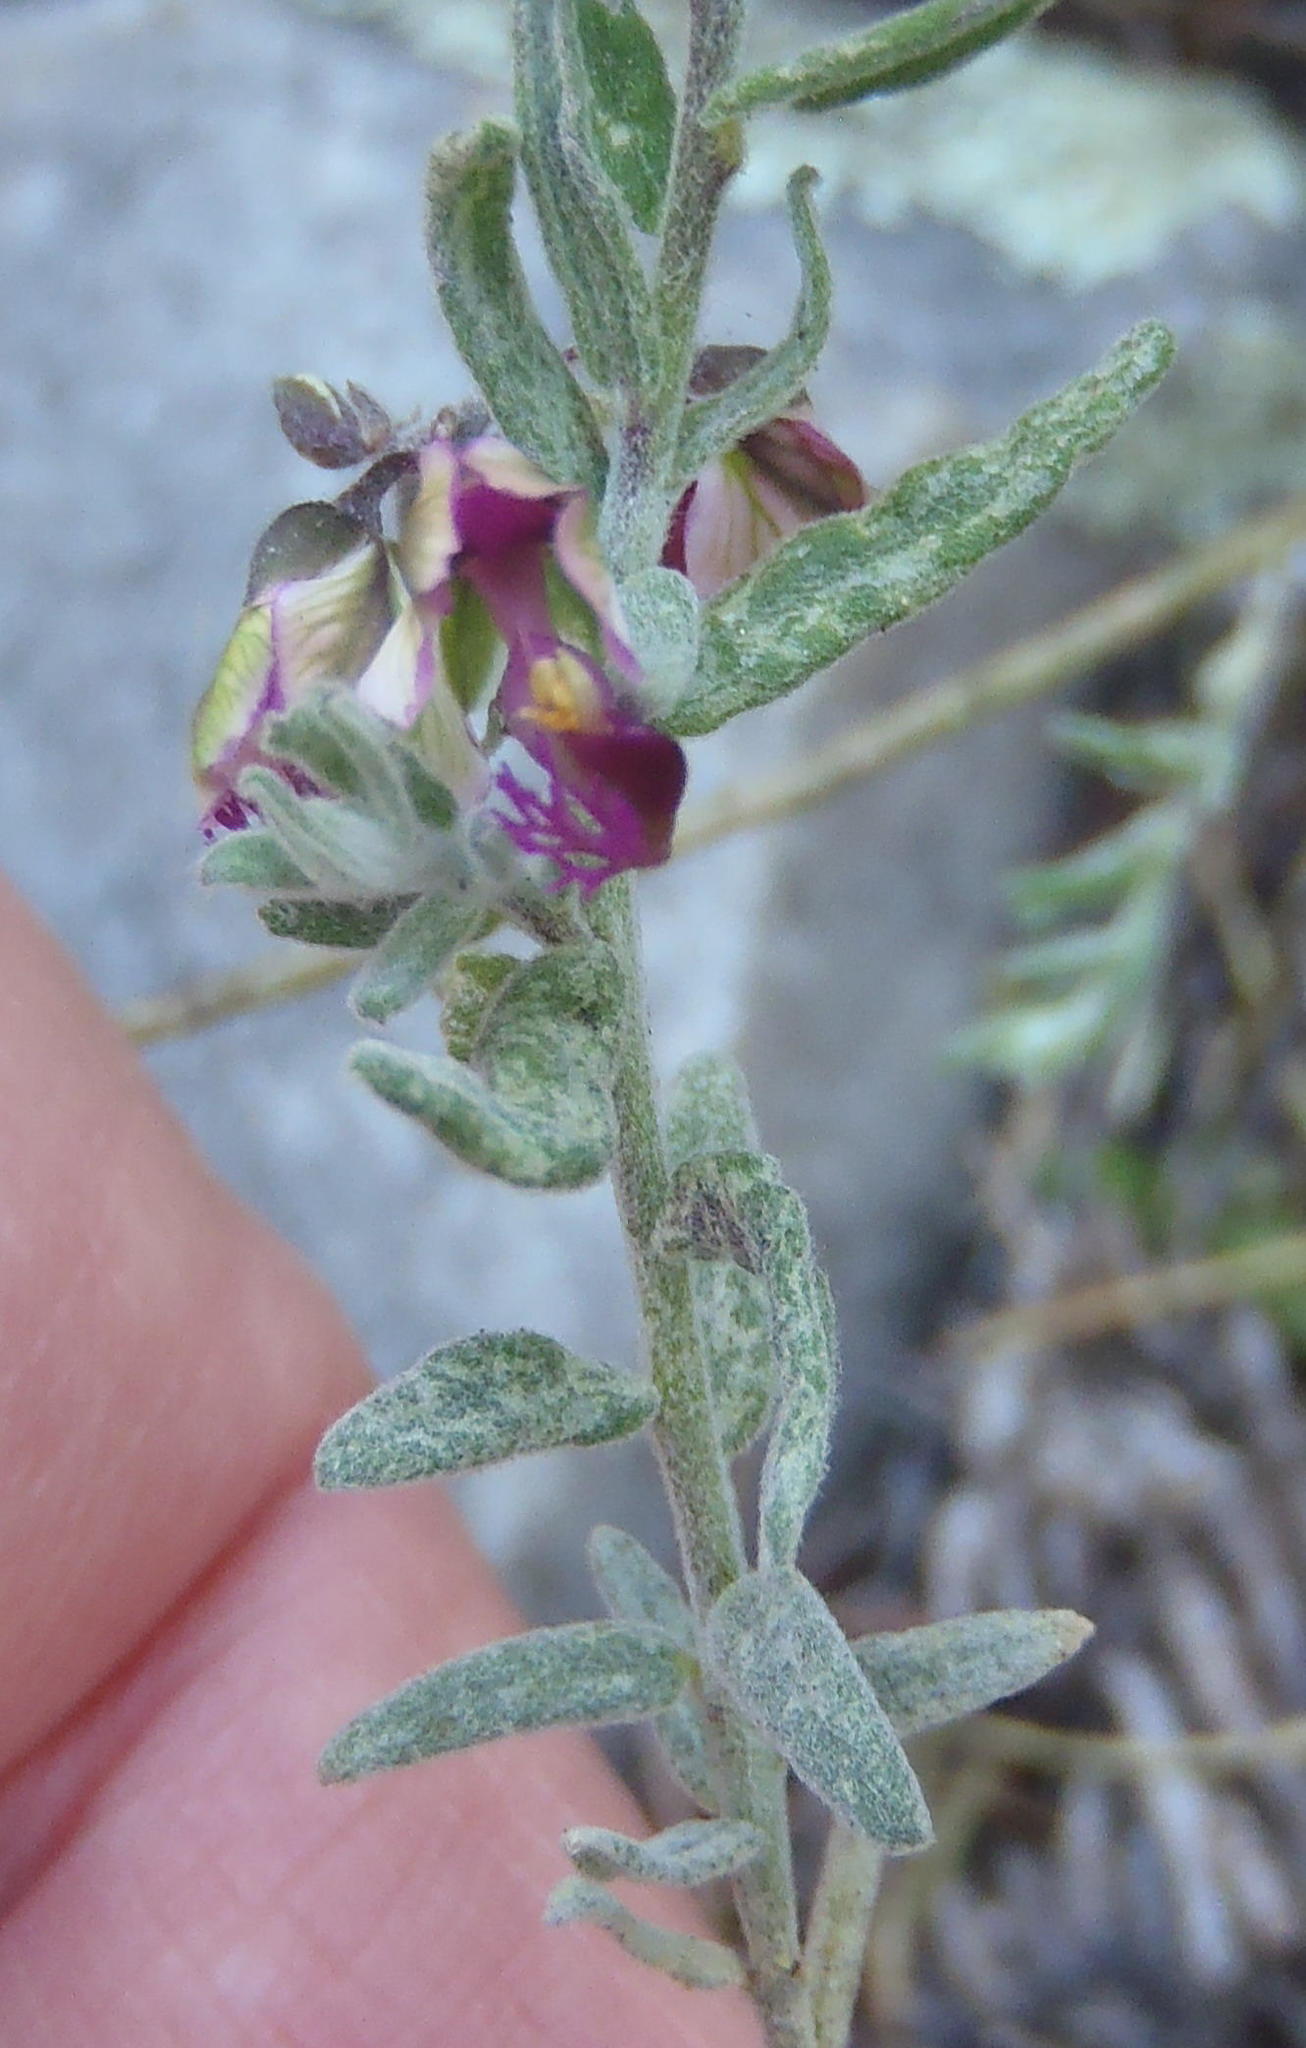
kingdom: Plantae
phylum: Tracheophyta
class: Magnoliopsida
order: Fabales
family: Polygalaceae
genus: Polygala
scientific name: Polygala scabra
